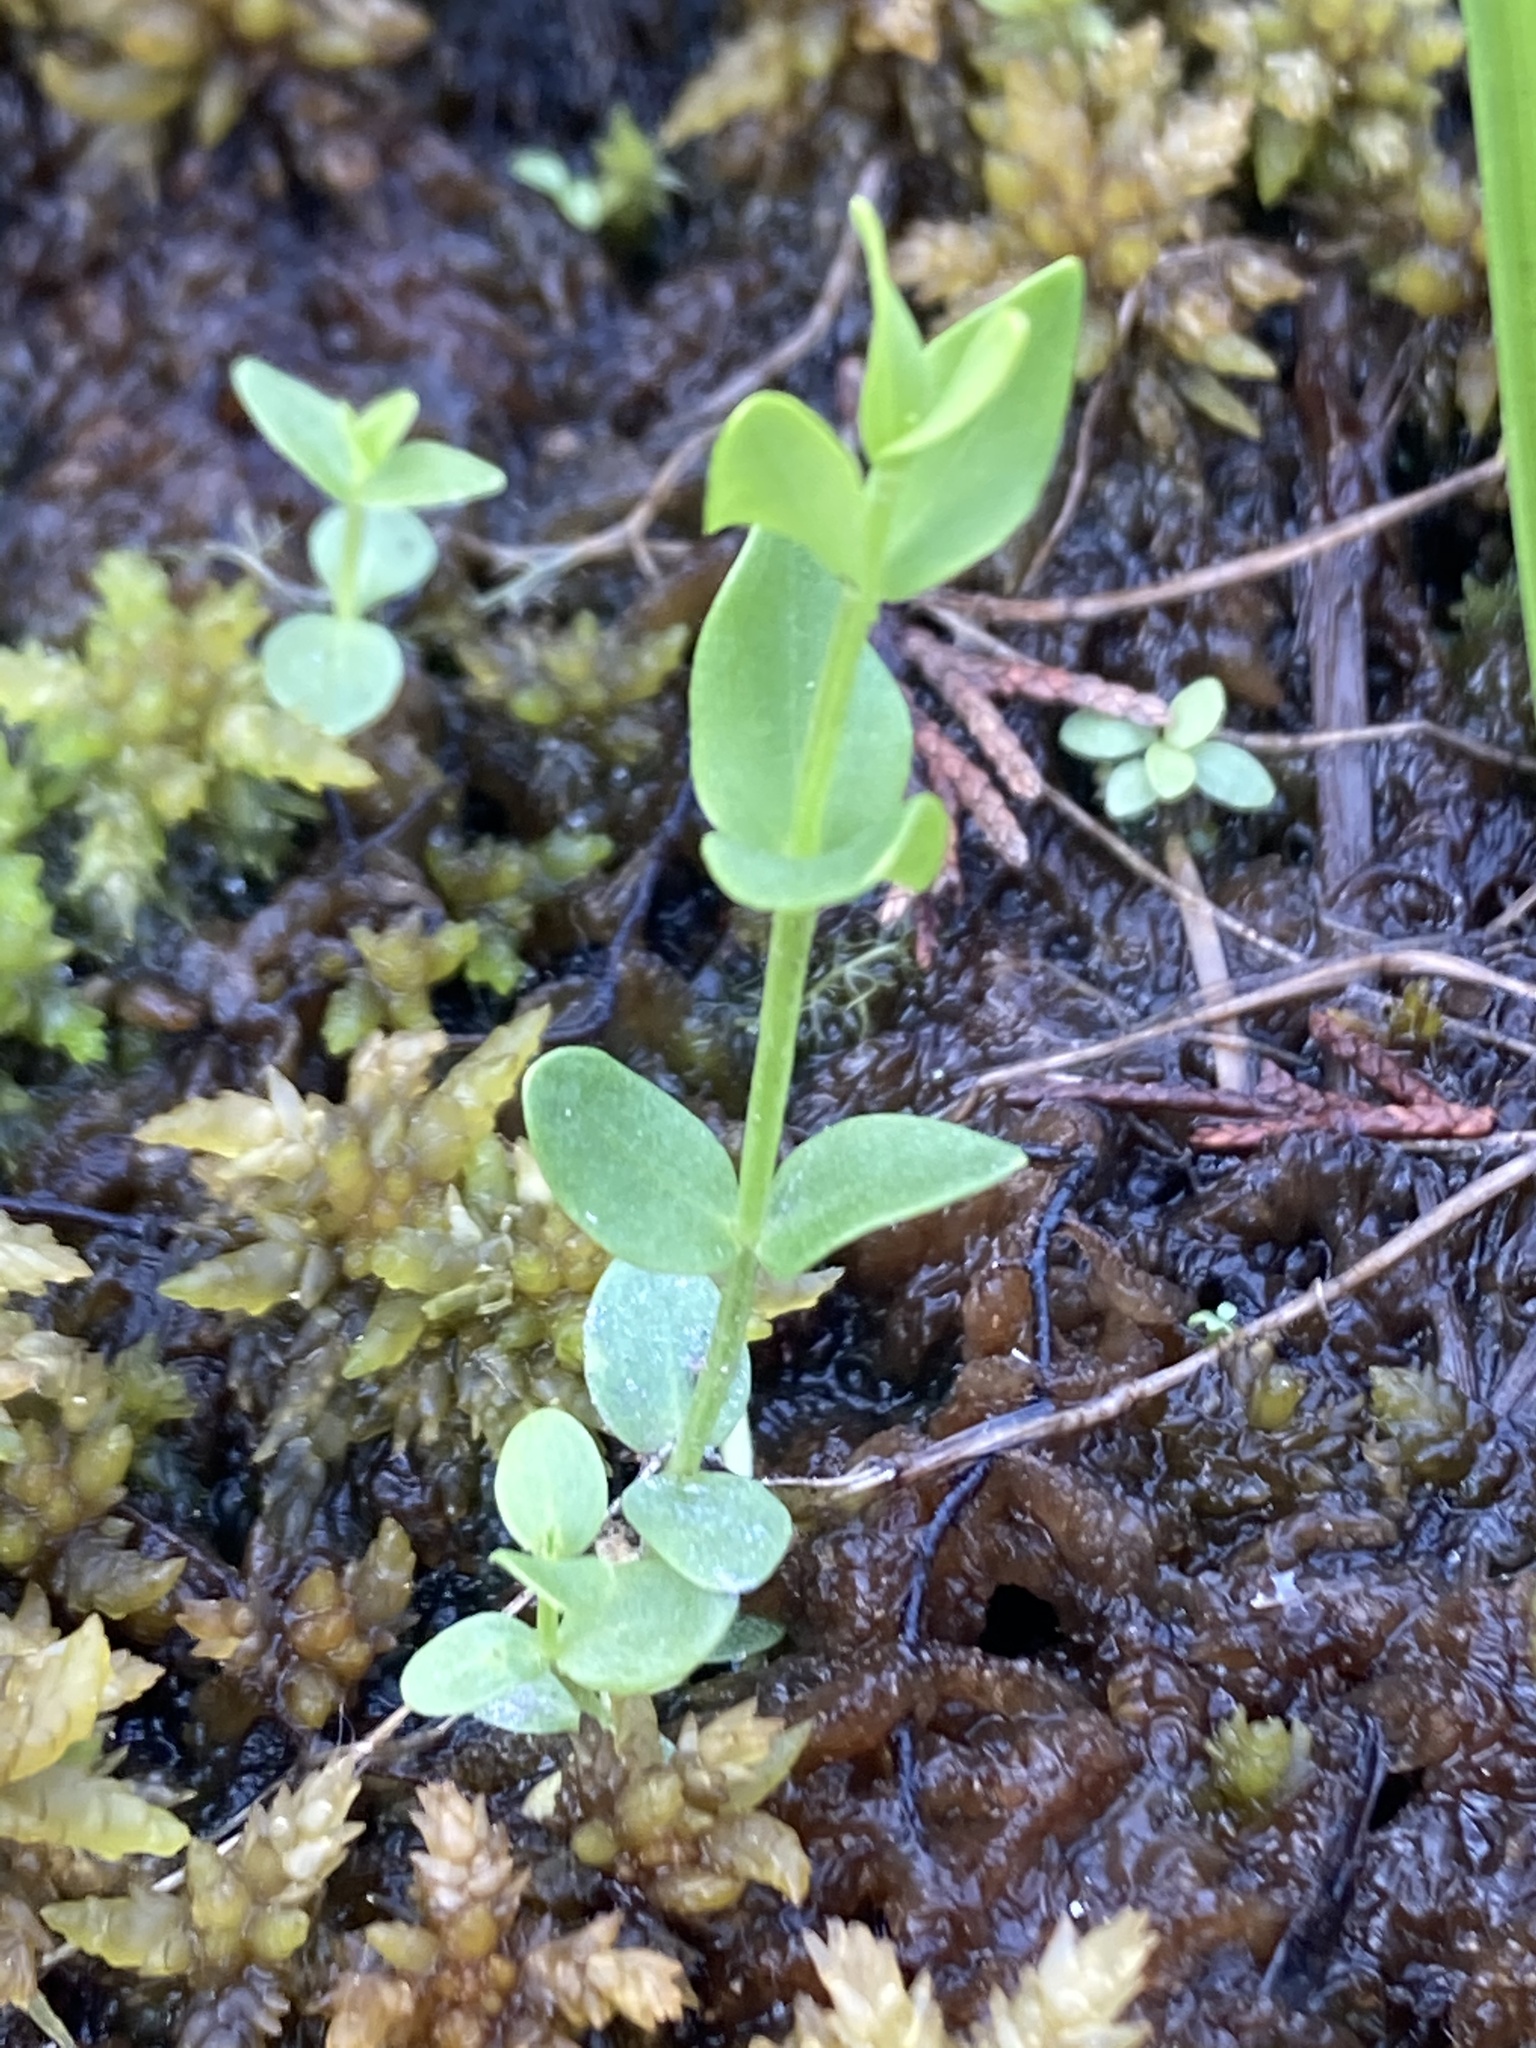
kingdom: Plantae
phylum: Tracheophyta
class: Magnoliopsida
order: Gentianales
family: Gentianaceae
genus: Sabatia
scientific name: Sabatia difformis
